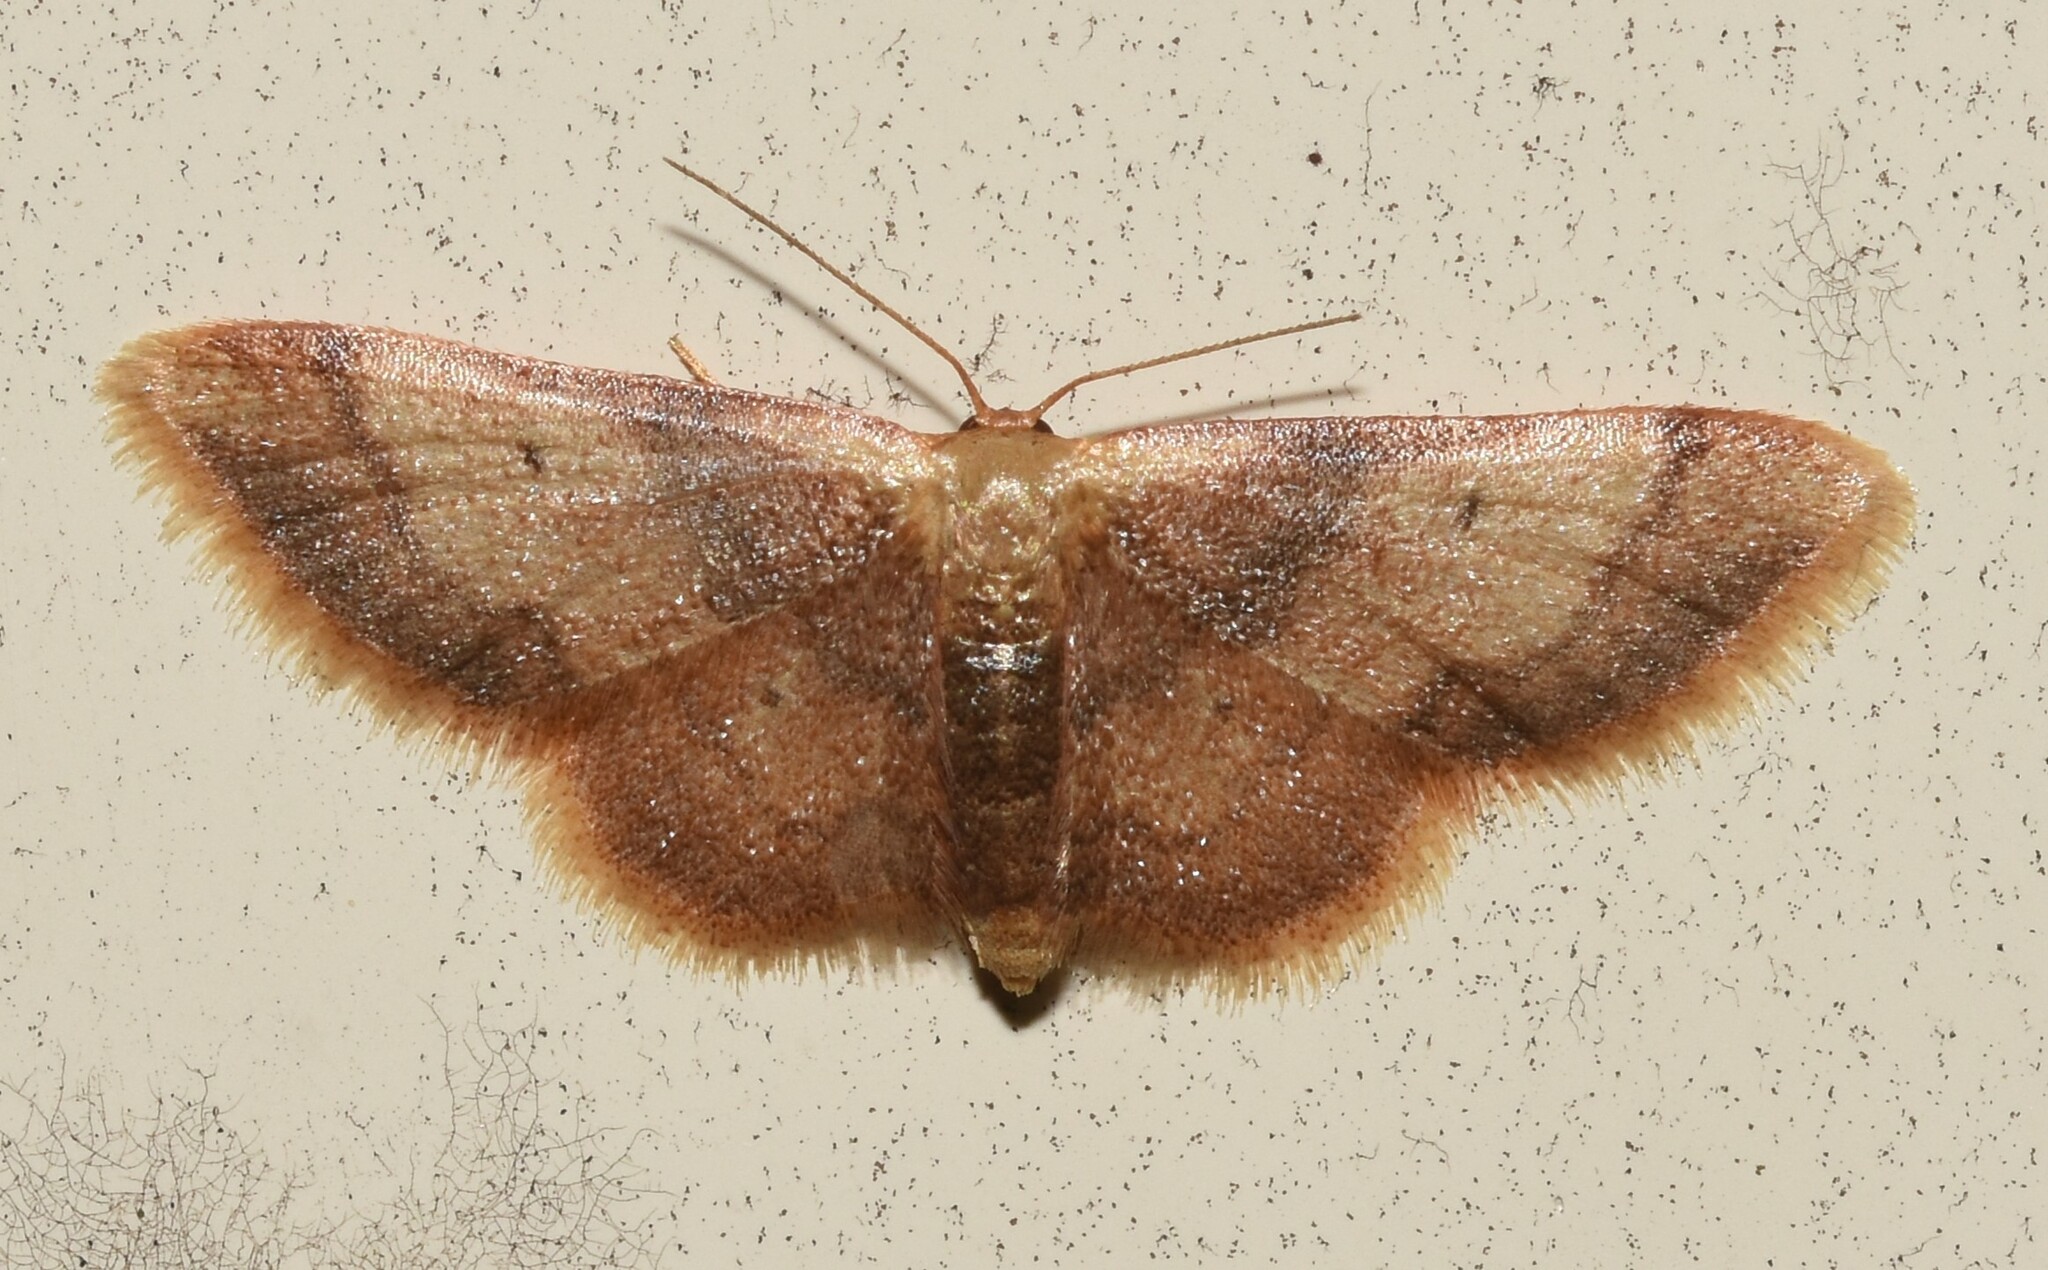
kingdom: Animalia
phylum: Arthropoda
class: Insecta
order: Lepidoptera
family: Geometridae
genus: Idaea
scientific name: Idaea demissaria
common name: Red-bordered wave
